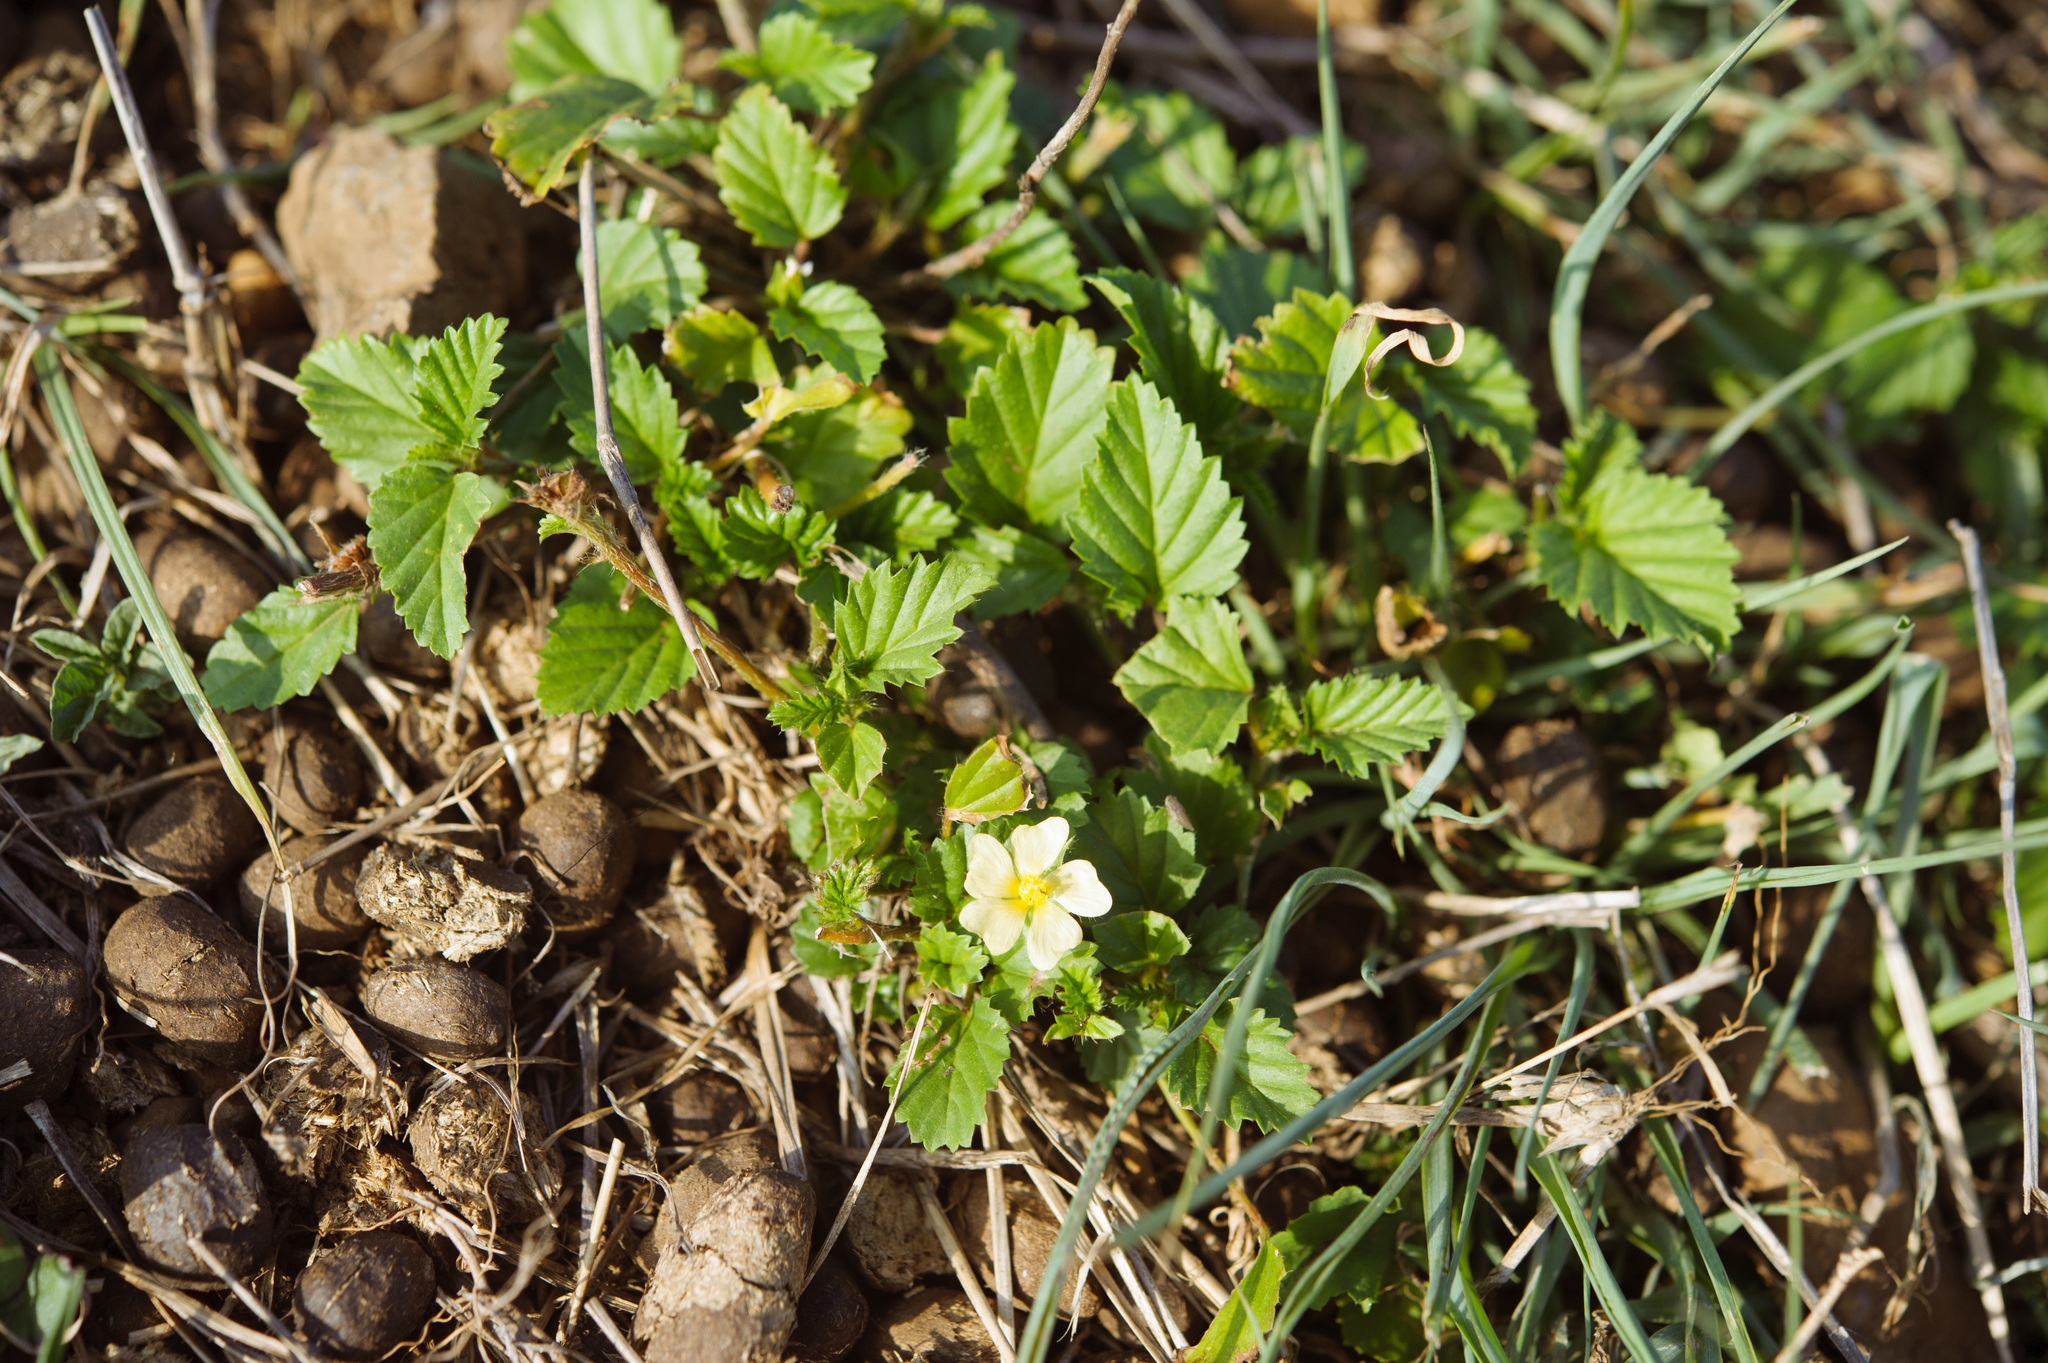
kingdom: Plantae
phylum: Tracheophyta
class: Magnoliopsida
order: Malvales
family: Malvaceae
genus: Malvastrum
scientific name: Malvastrum coromandelianum
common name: Threelobe false mallow
